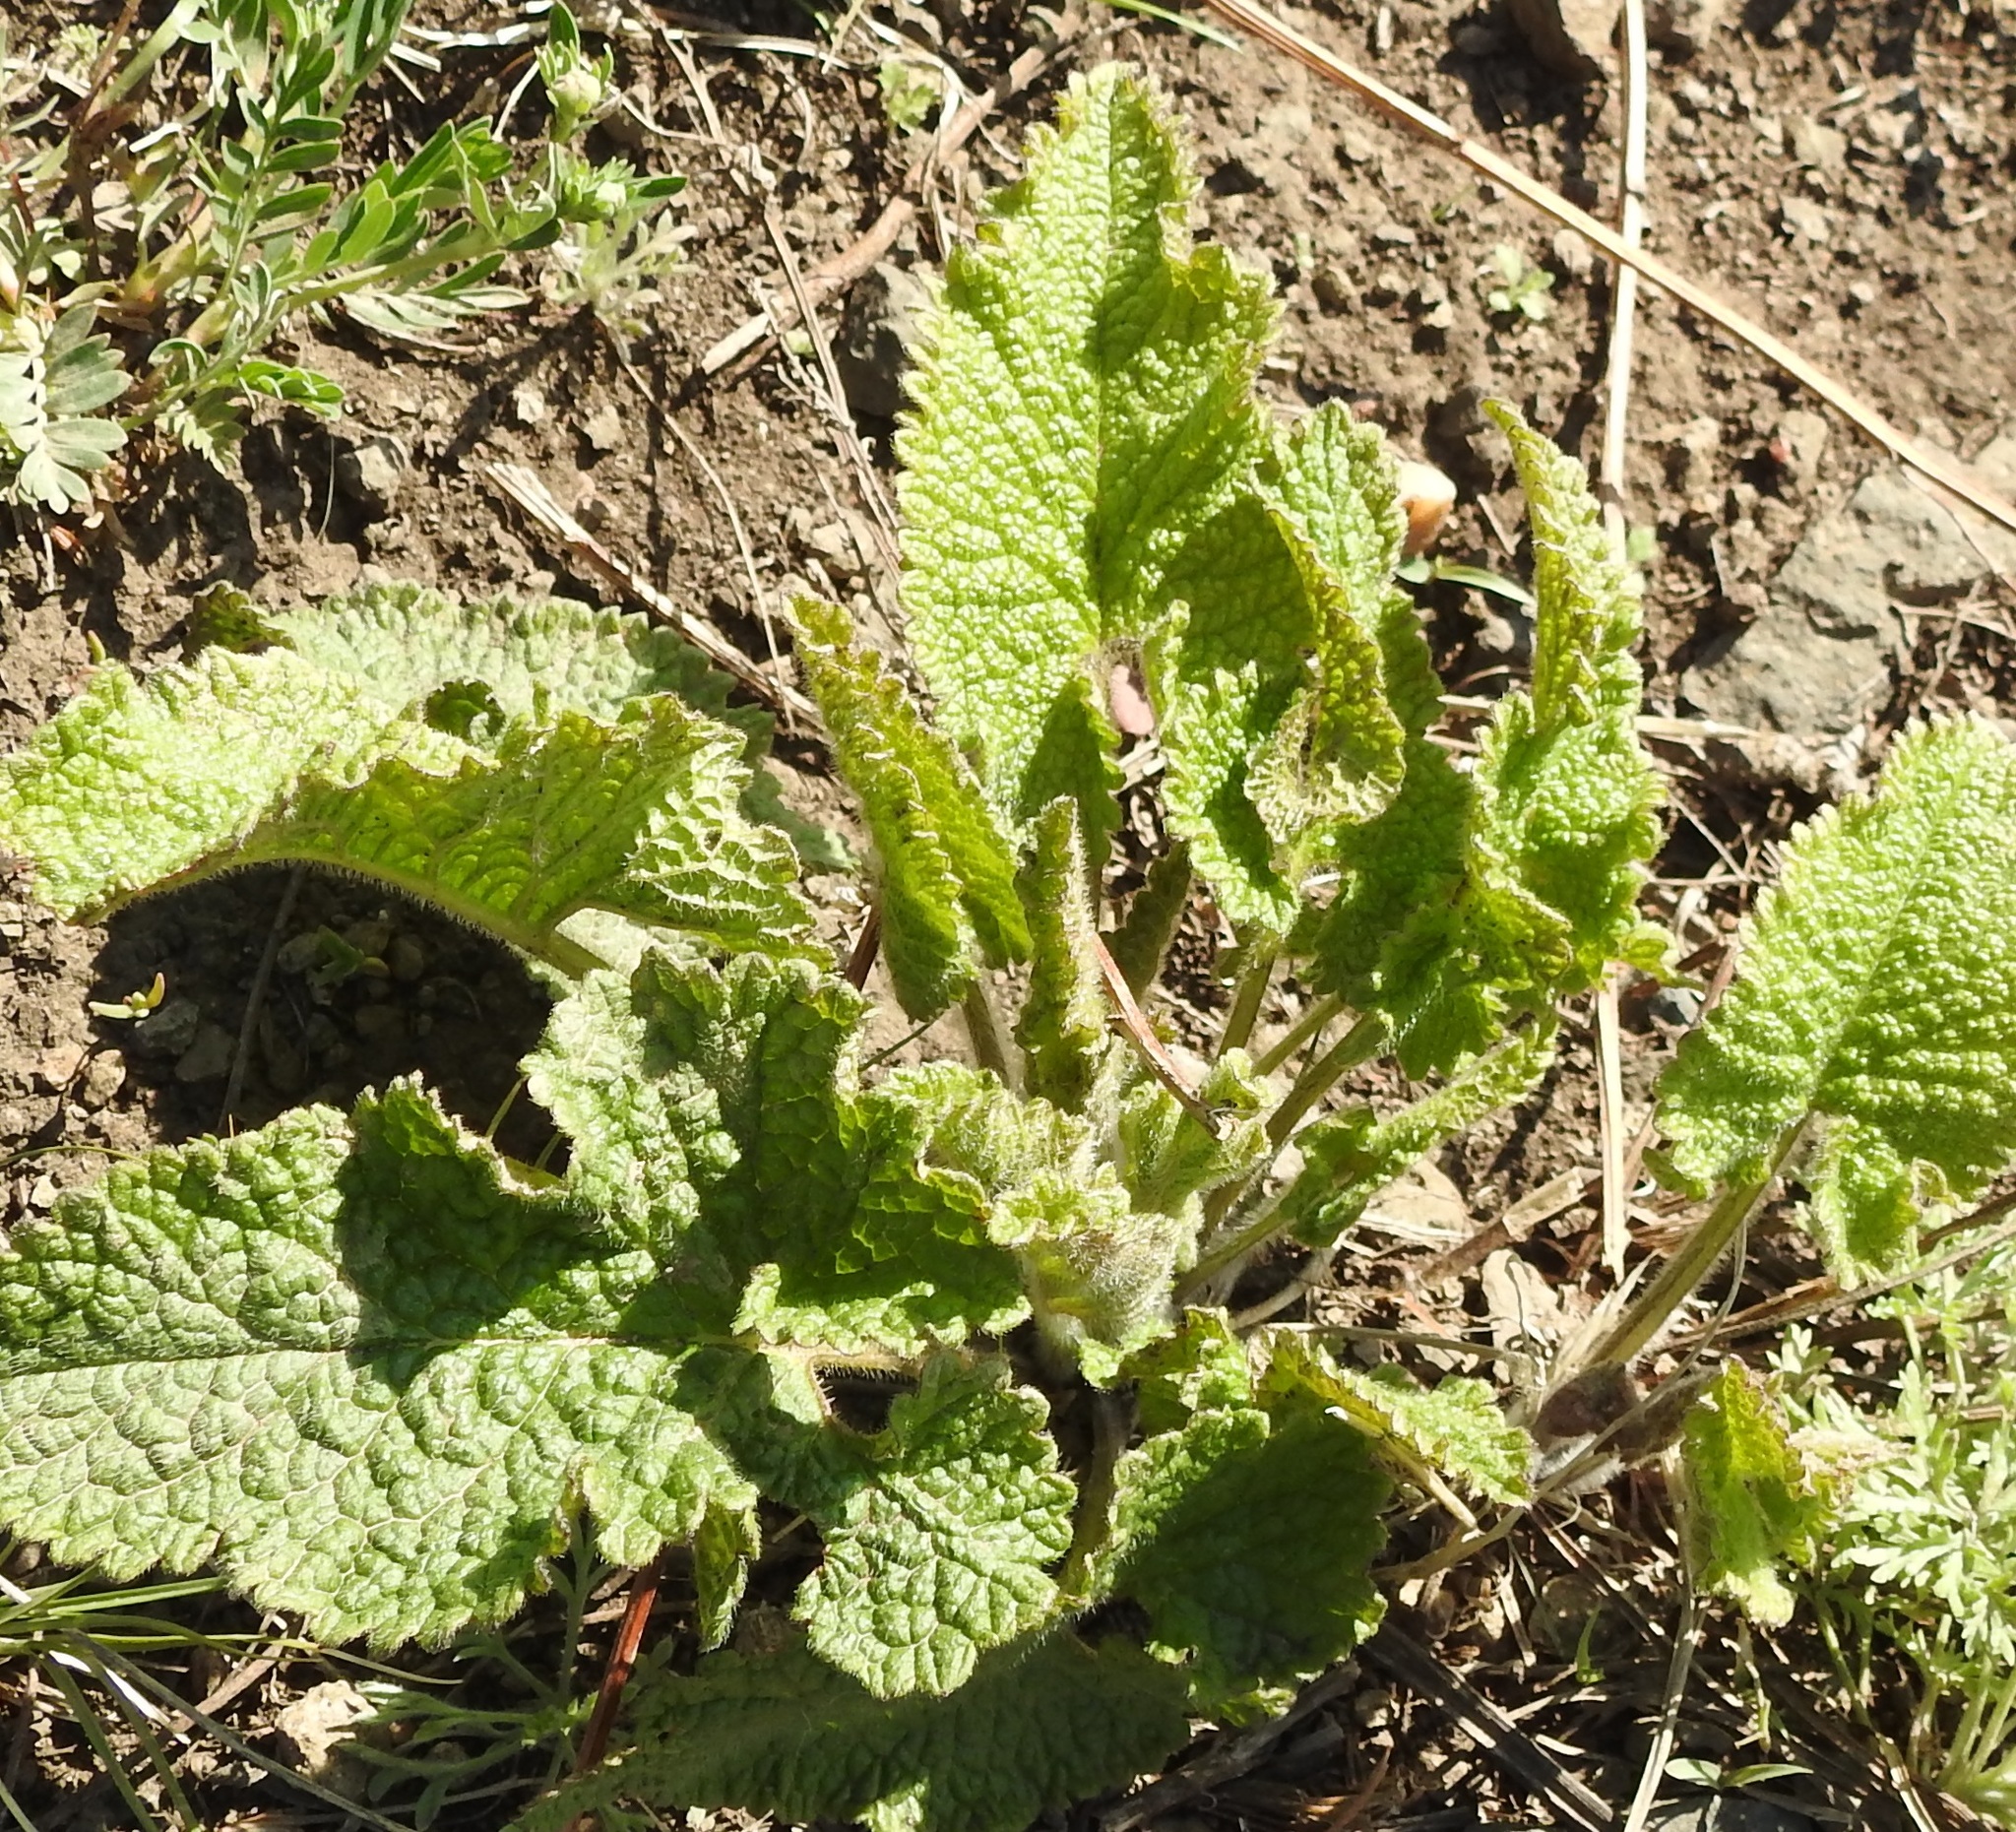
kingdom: Plantae
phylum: Tracheophyta
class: Magnoliopsida
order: Lamiales
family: Lamiaceae
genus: Phlomoides
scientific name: Phlomoides tuberosa
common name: Tuberous jerusalem sage
